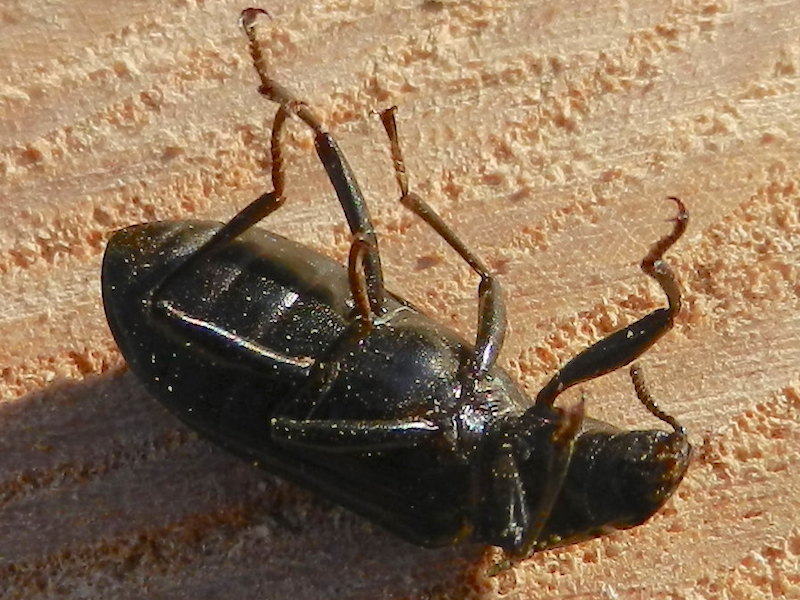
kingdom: Animalia
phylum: Arthropoda
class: Insecta
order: Coleoptera
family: Tenebrionidae
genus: Alobates
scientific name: Alobates pensylvanicus
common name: False mealworm beetle
